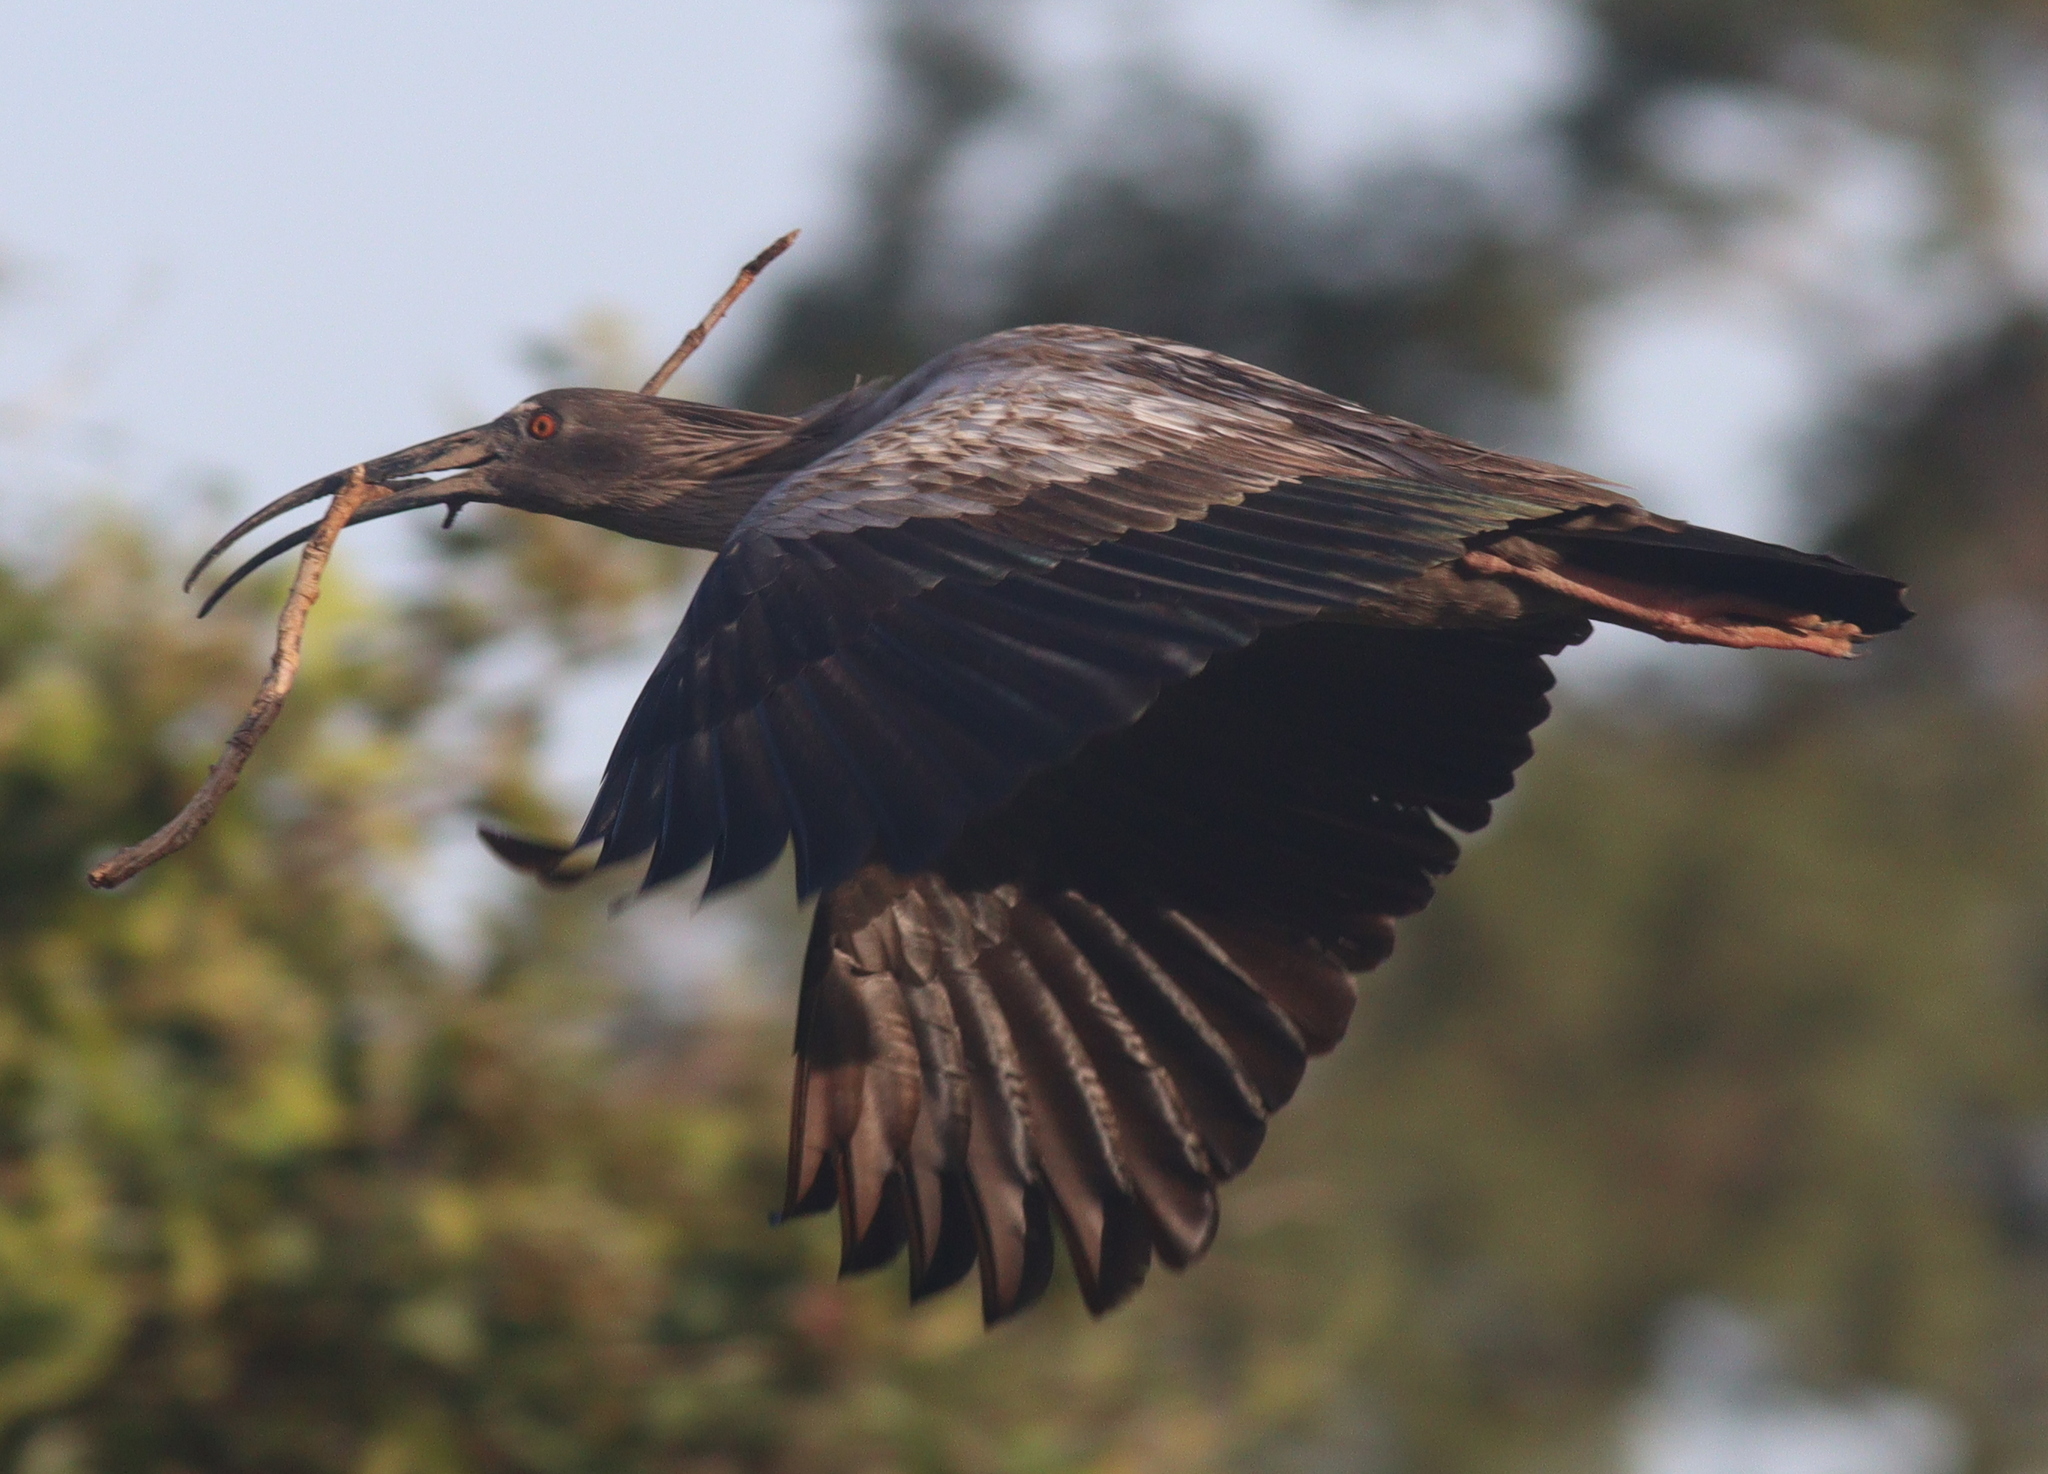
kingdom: Animalia
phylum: Chordata
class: Aves
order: Pelecaniformes
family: Threskiornithidae
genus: Theristicus
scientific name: Theristicus caerulescens
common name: Plumbeous ibis
